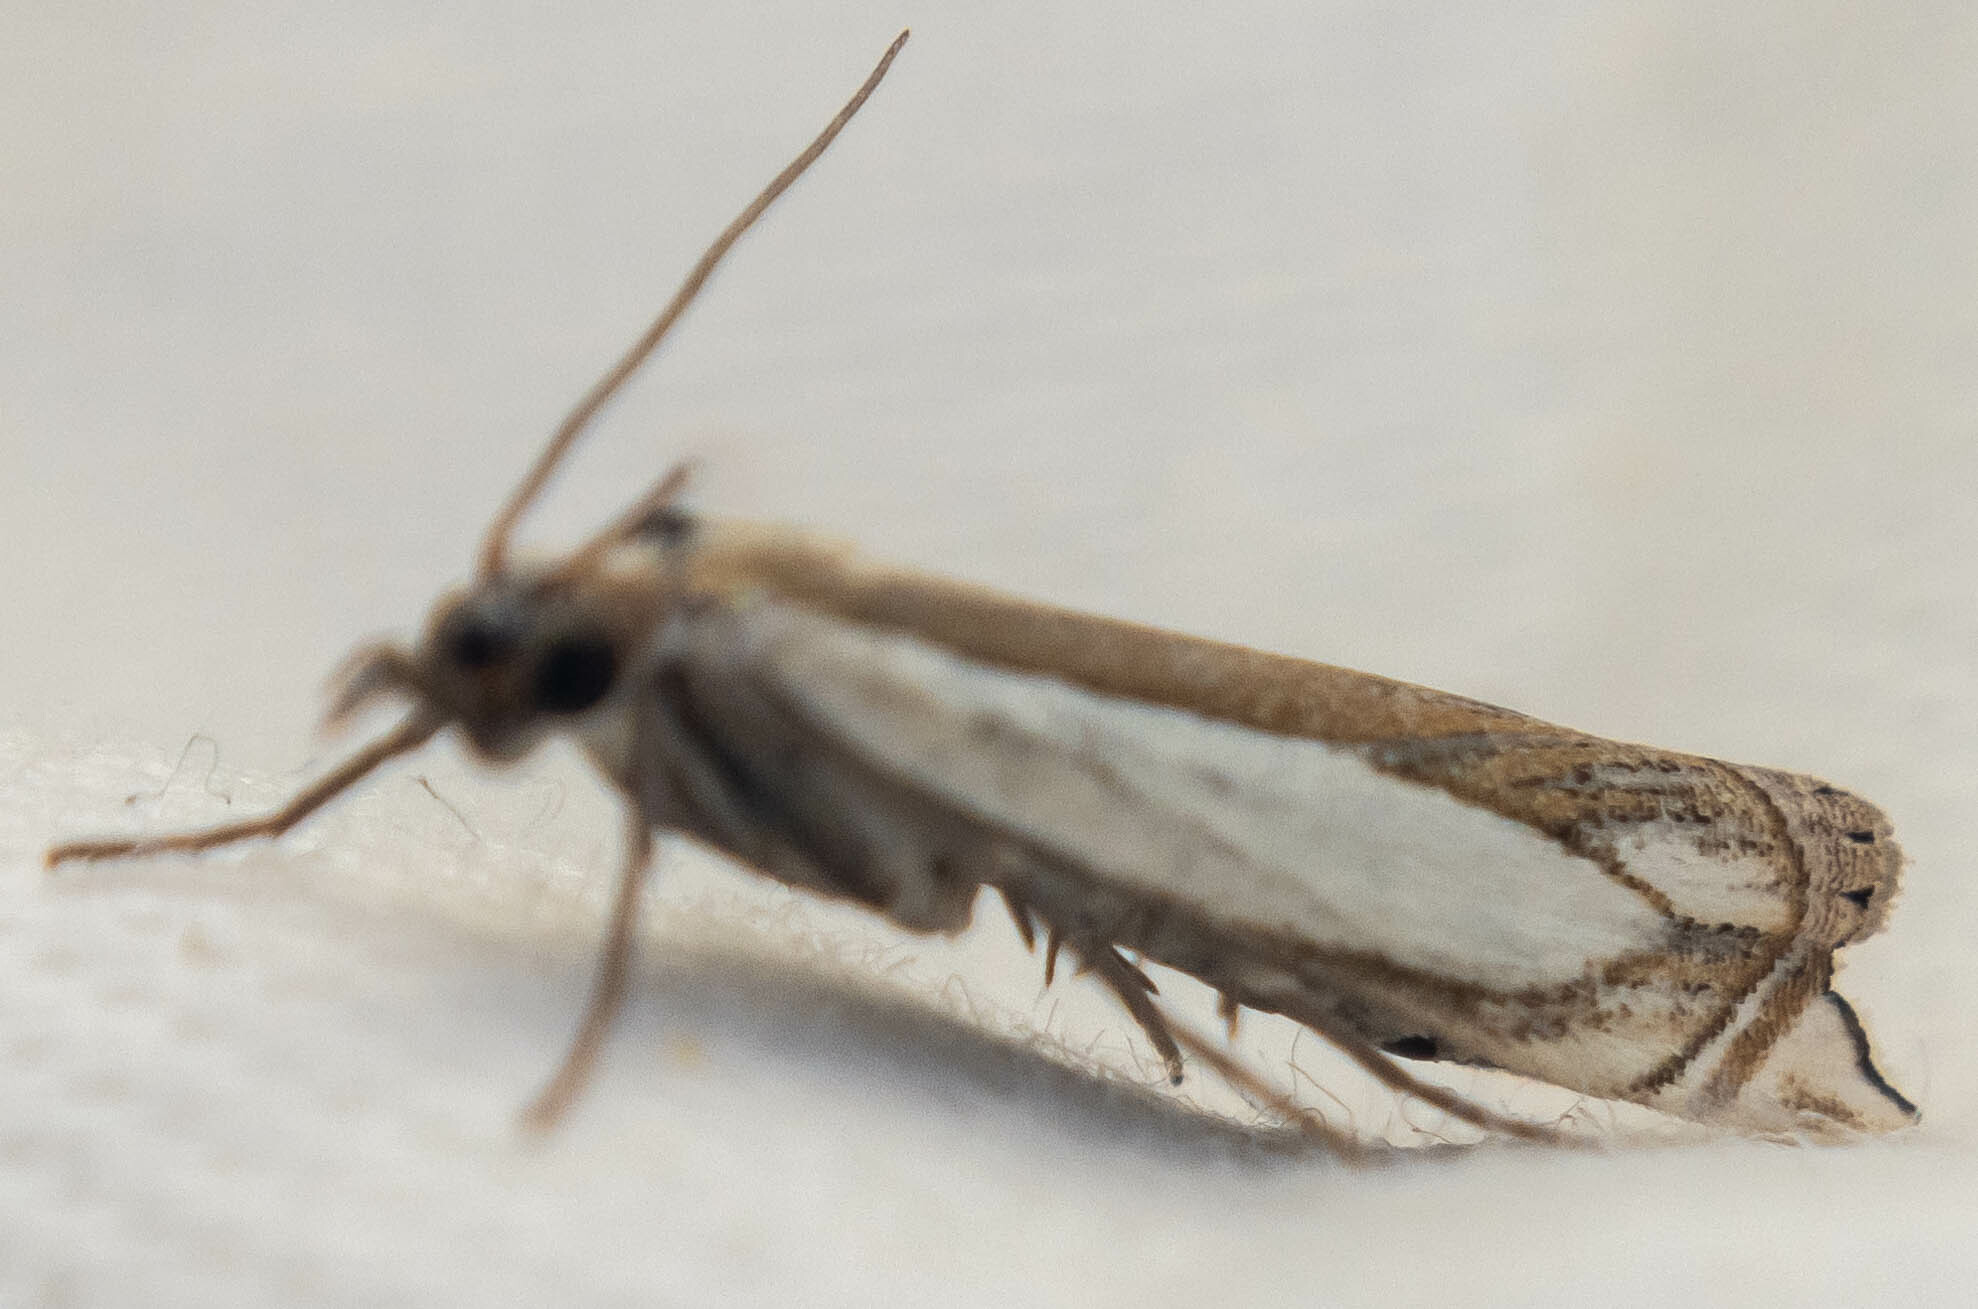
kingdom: Animalia
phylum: Arthropoda
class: Insecta
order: Lepidoptera
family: Crambidae
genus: Crambus
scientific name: Crambus pascuella
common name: Inlaid grass-veneer
